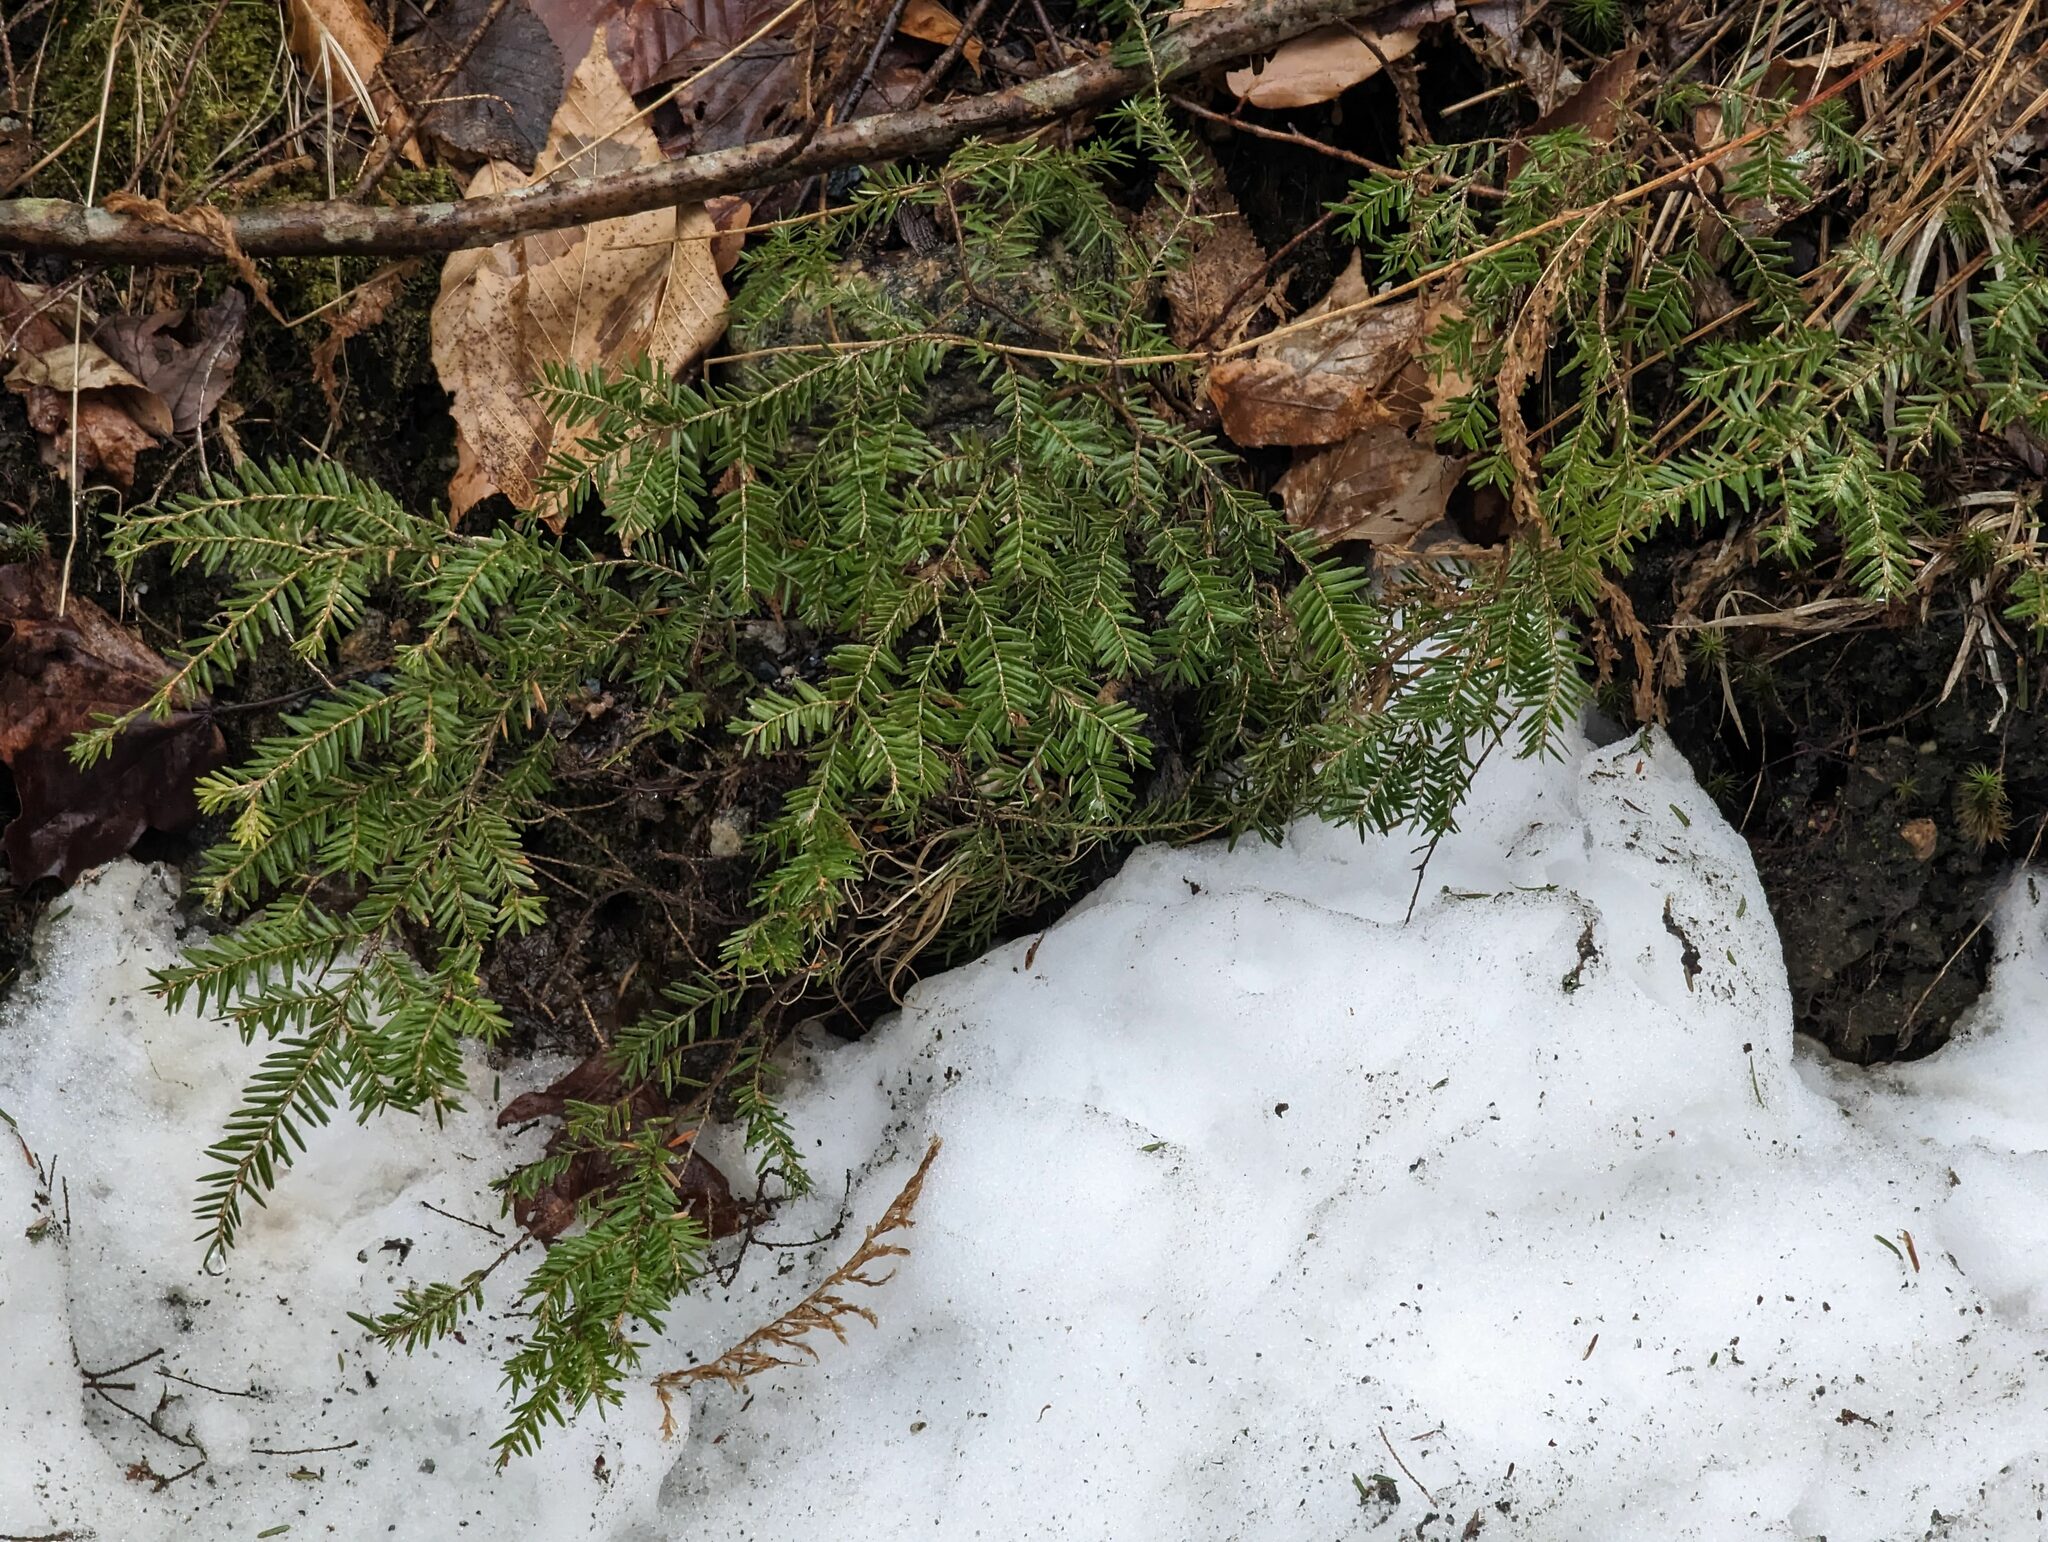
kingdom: Plantae
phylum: Tracheophyta
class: Pinopsida
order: Pinales
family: Pinaceae
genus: Tsuga
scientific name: Tsuga canadensis
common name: Eastern hemlock
